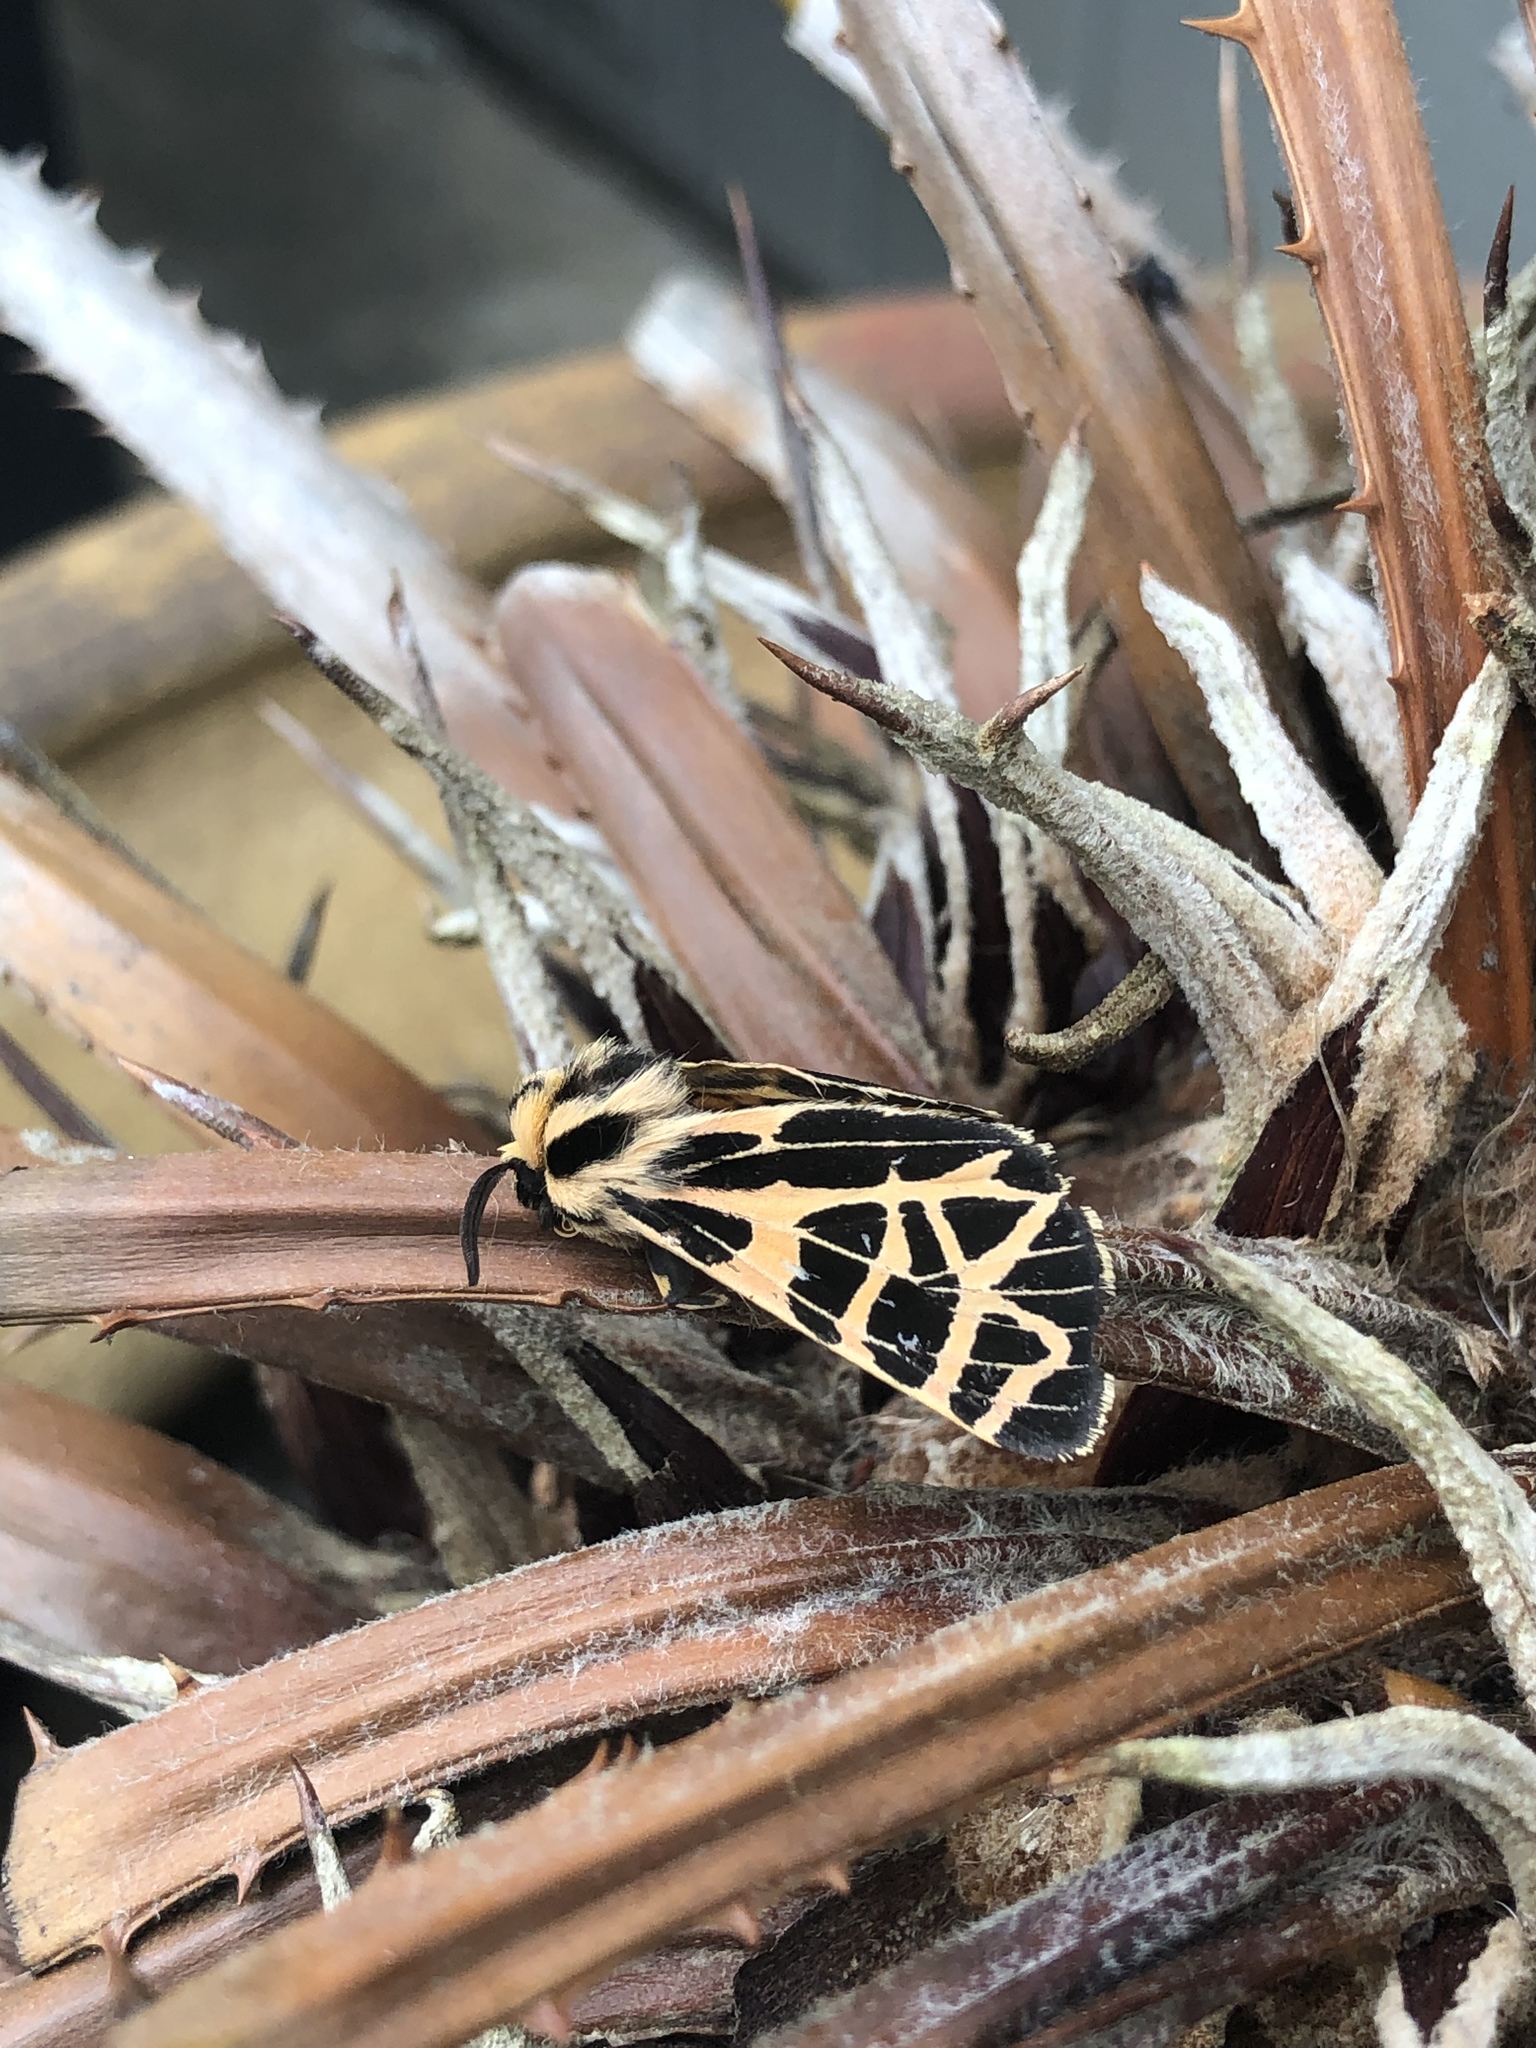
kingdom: Animalia
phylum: Arthropoda
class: Insecta
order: Lepidoptera
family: Erebidae
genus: Apantesis
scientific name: Apantesis
